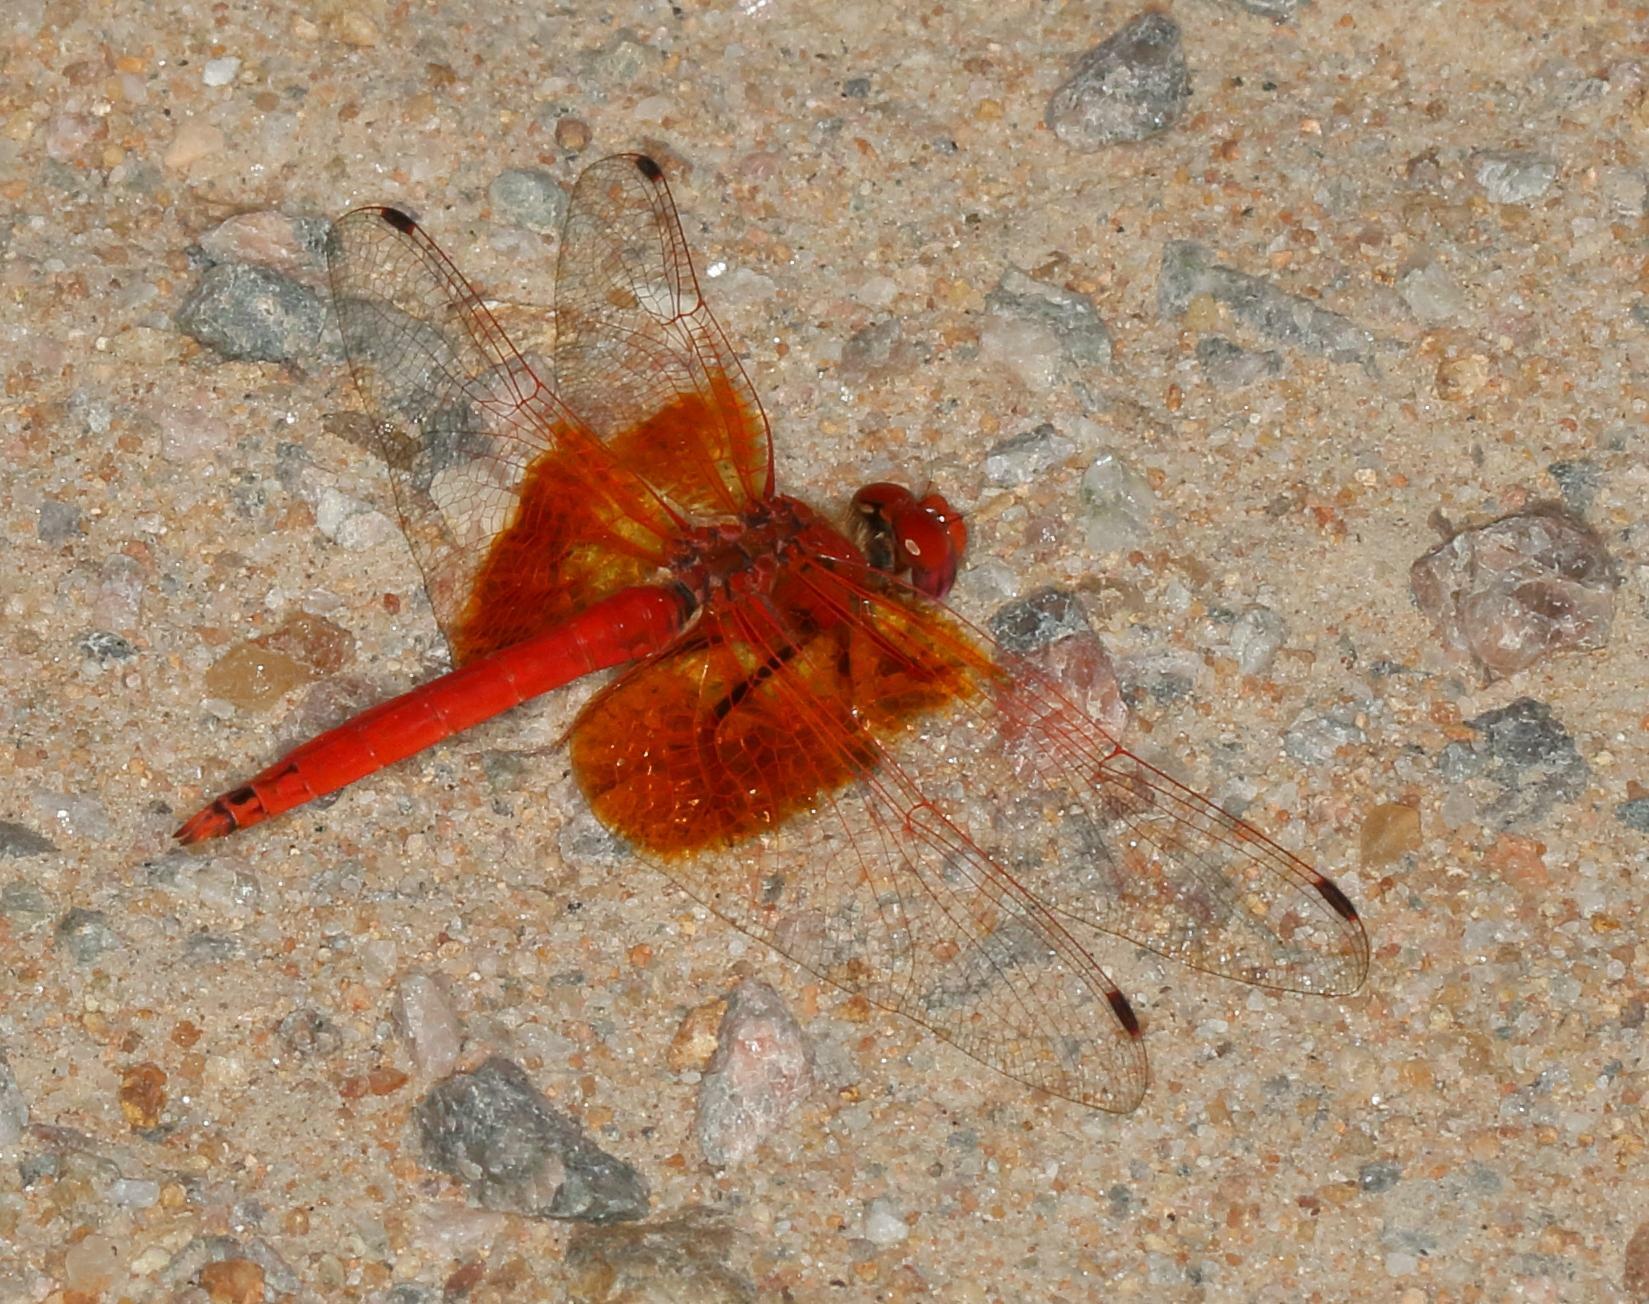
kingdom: Animalia
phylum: Arthropoda
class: Insecta
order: Odonata
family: Libellulidae
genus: Trithemis
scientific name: Trithemis kirbyi
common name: Kirby's dropwing
